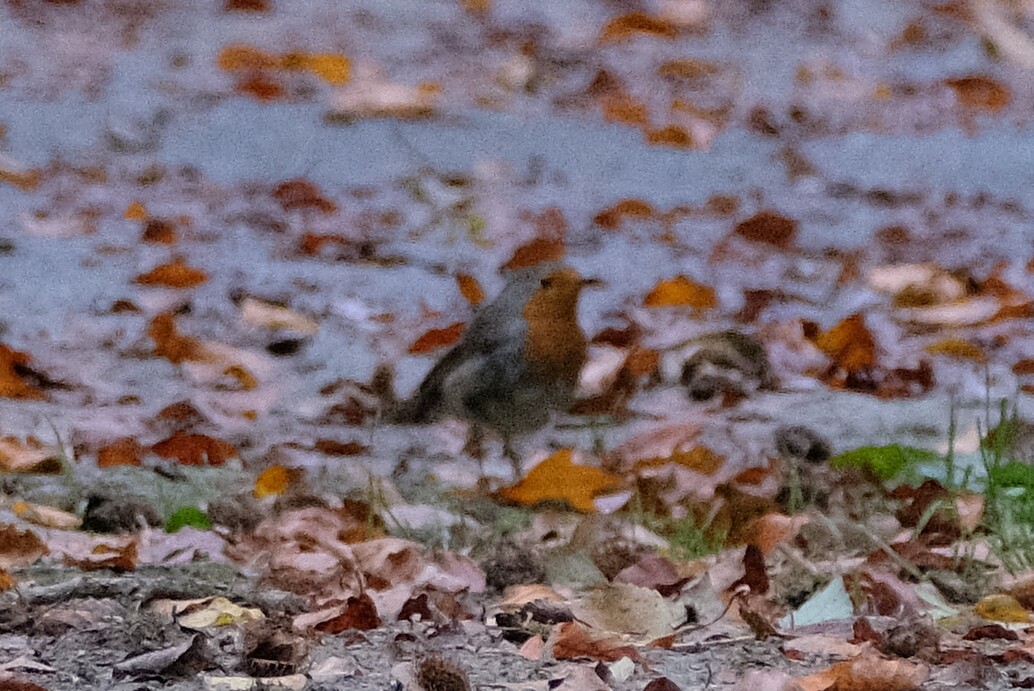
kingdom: Animalia
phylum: Chordata
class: Aves
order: Passeriformes
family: Muscicapidae
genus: Erithacus
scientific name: Erithacus rubecula
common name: European robin
